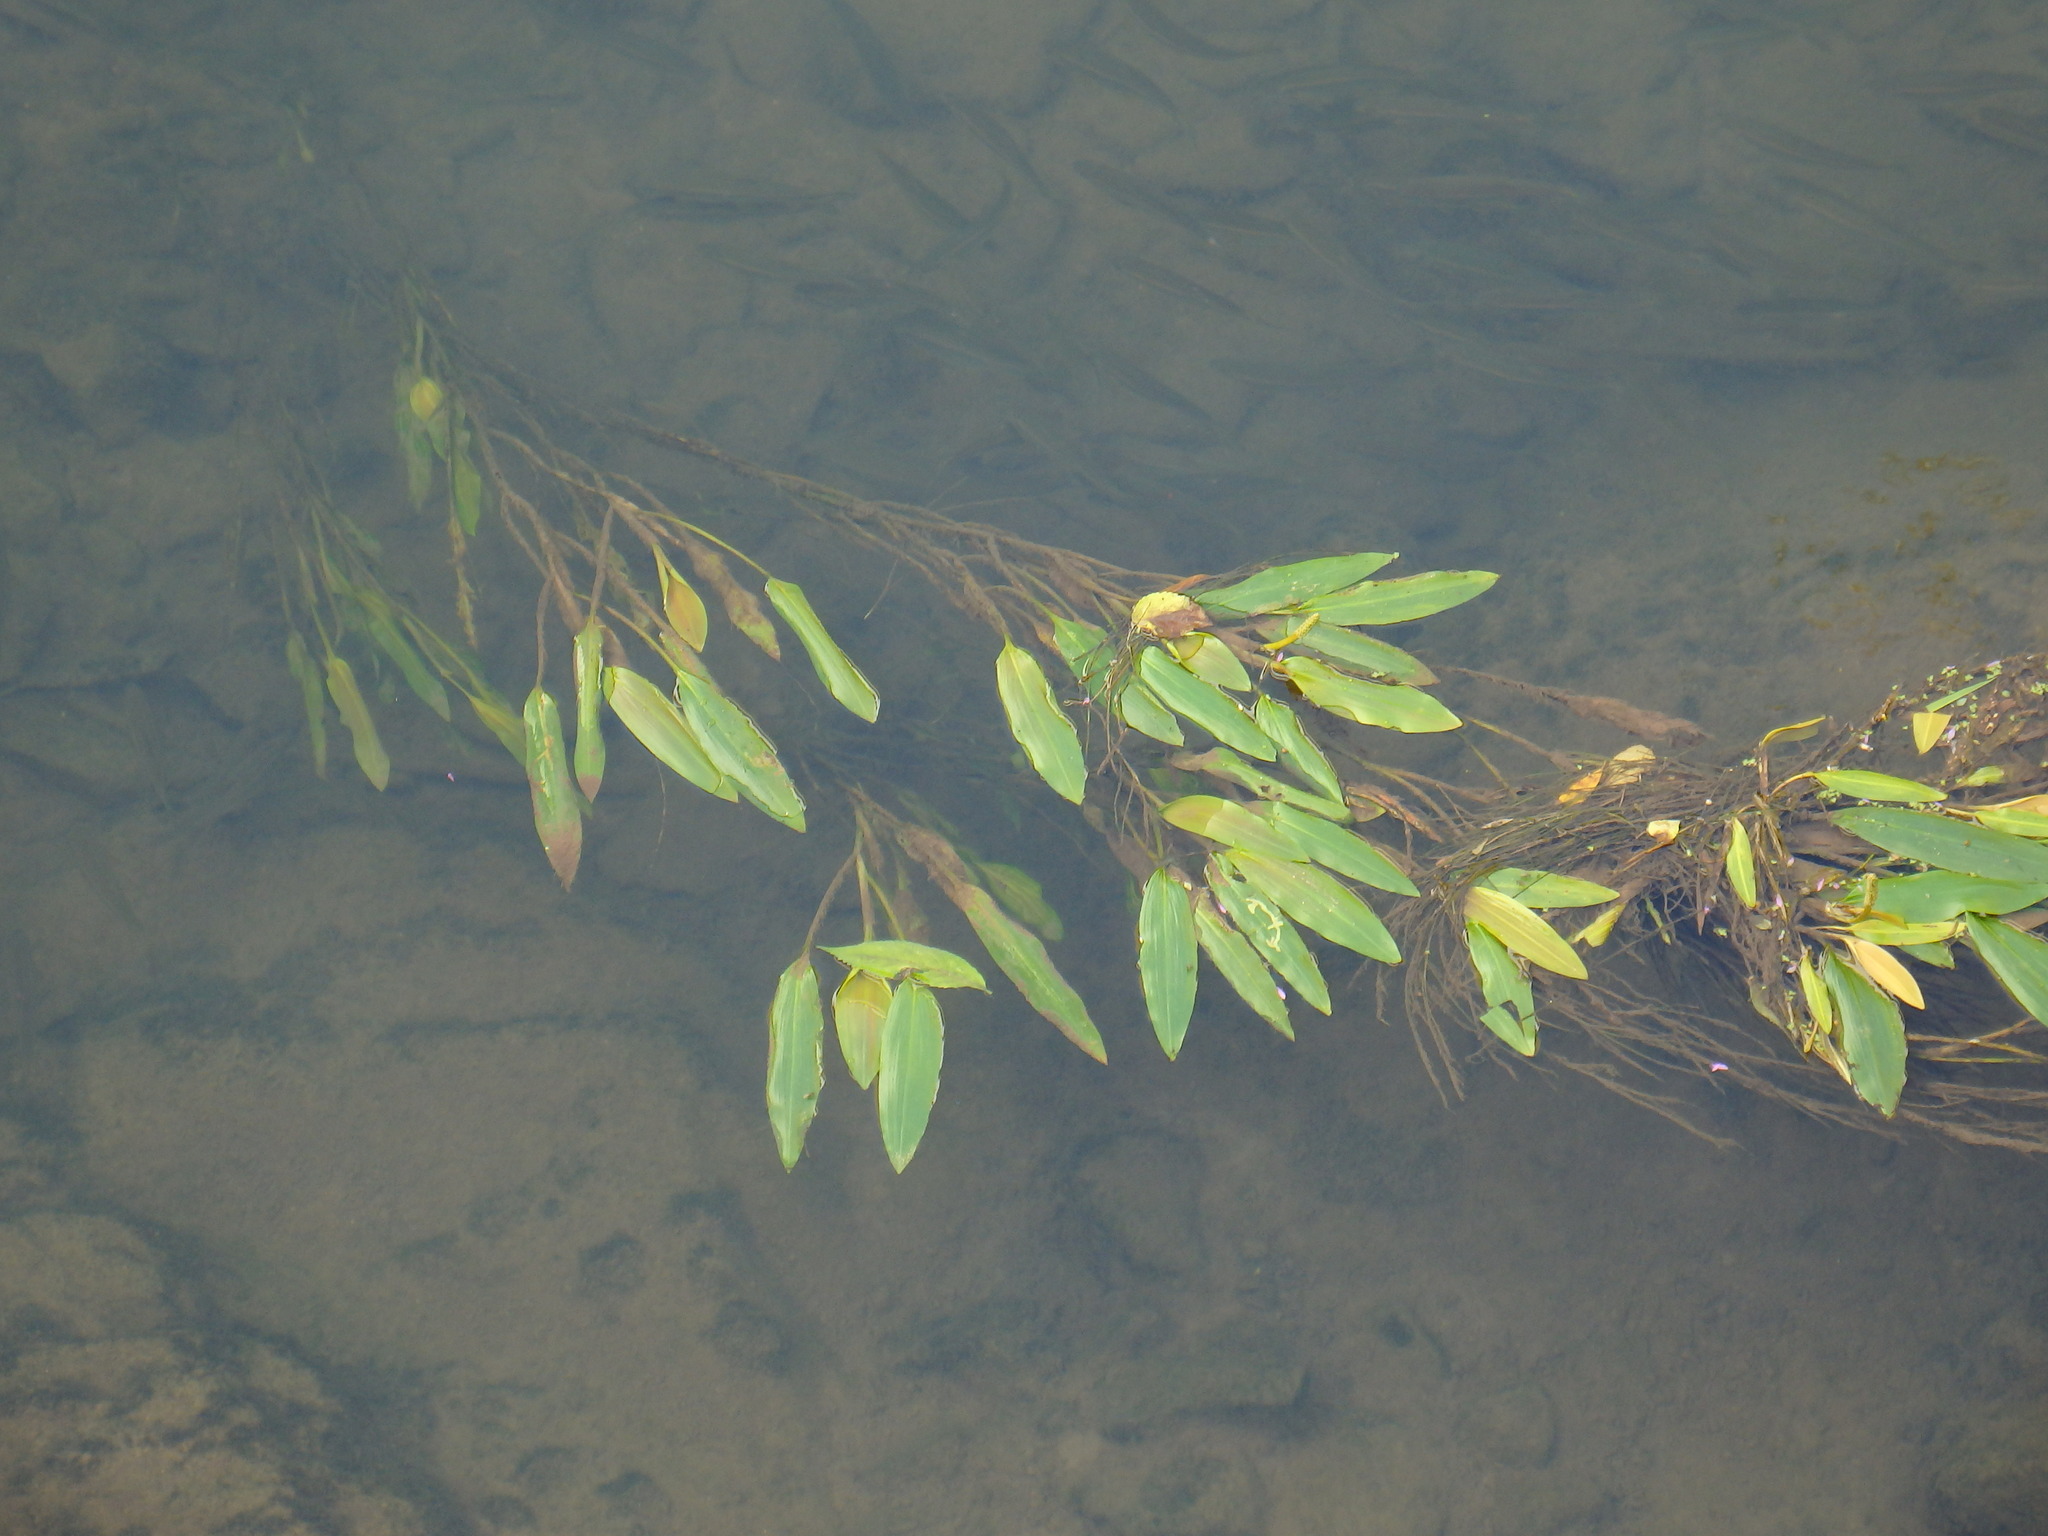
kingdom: Plantae
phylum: Tracheophyta
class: Liliopsida
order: Alismatales
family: Potamogetonaceae
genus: Potamogeton
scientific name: Potamogeton nodosus
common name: Loddon pondweed
